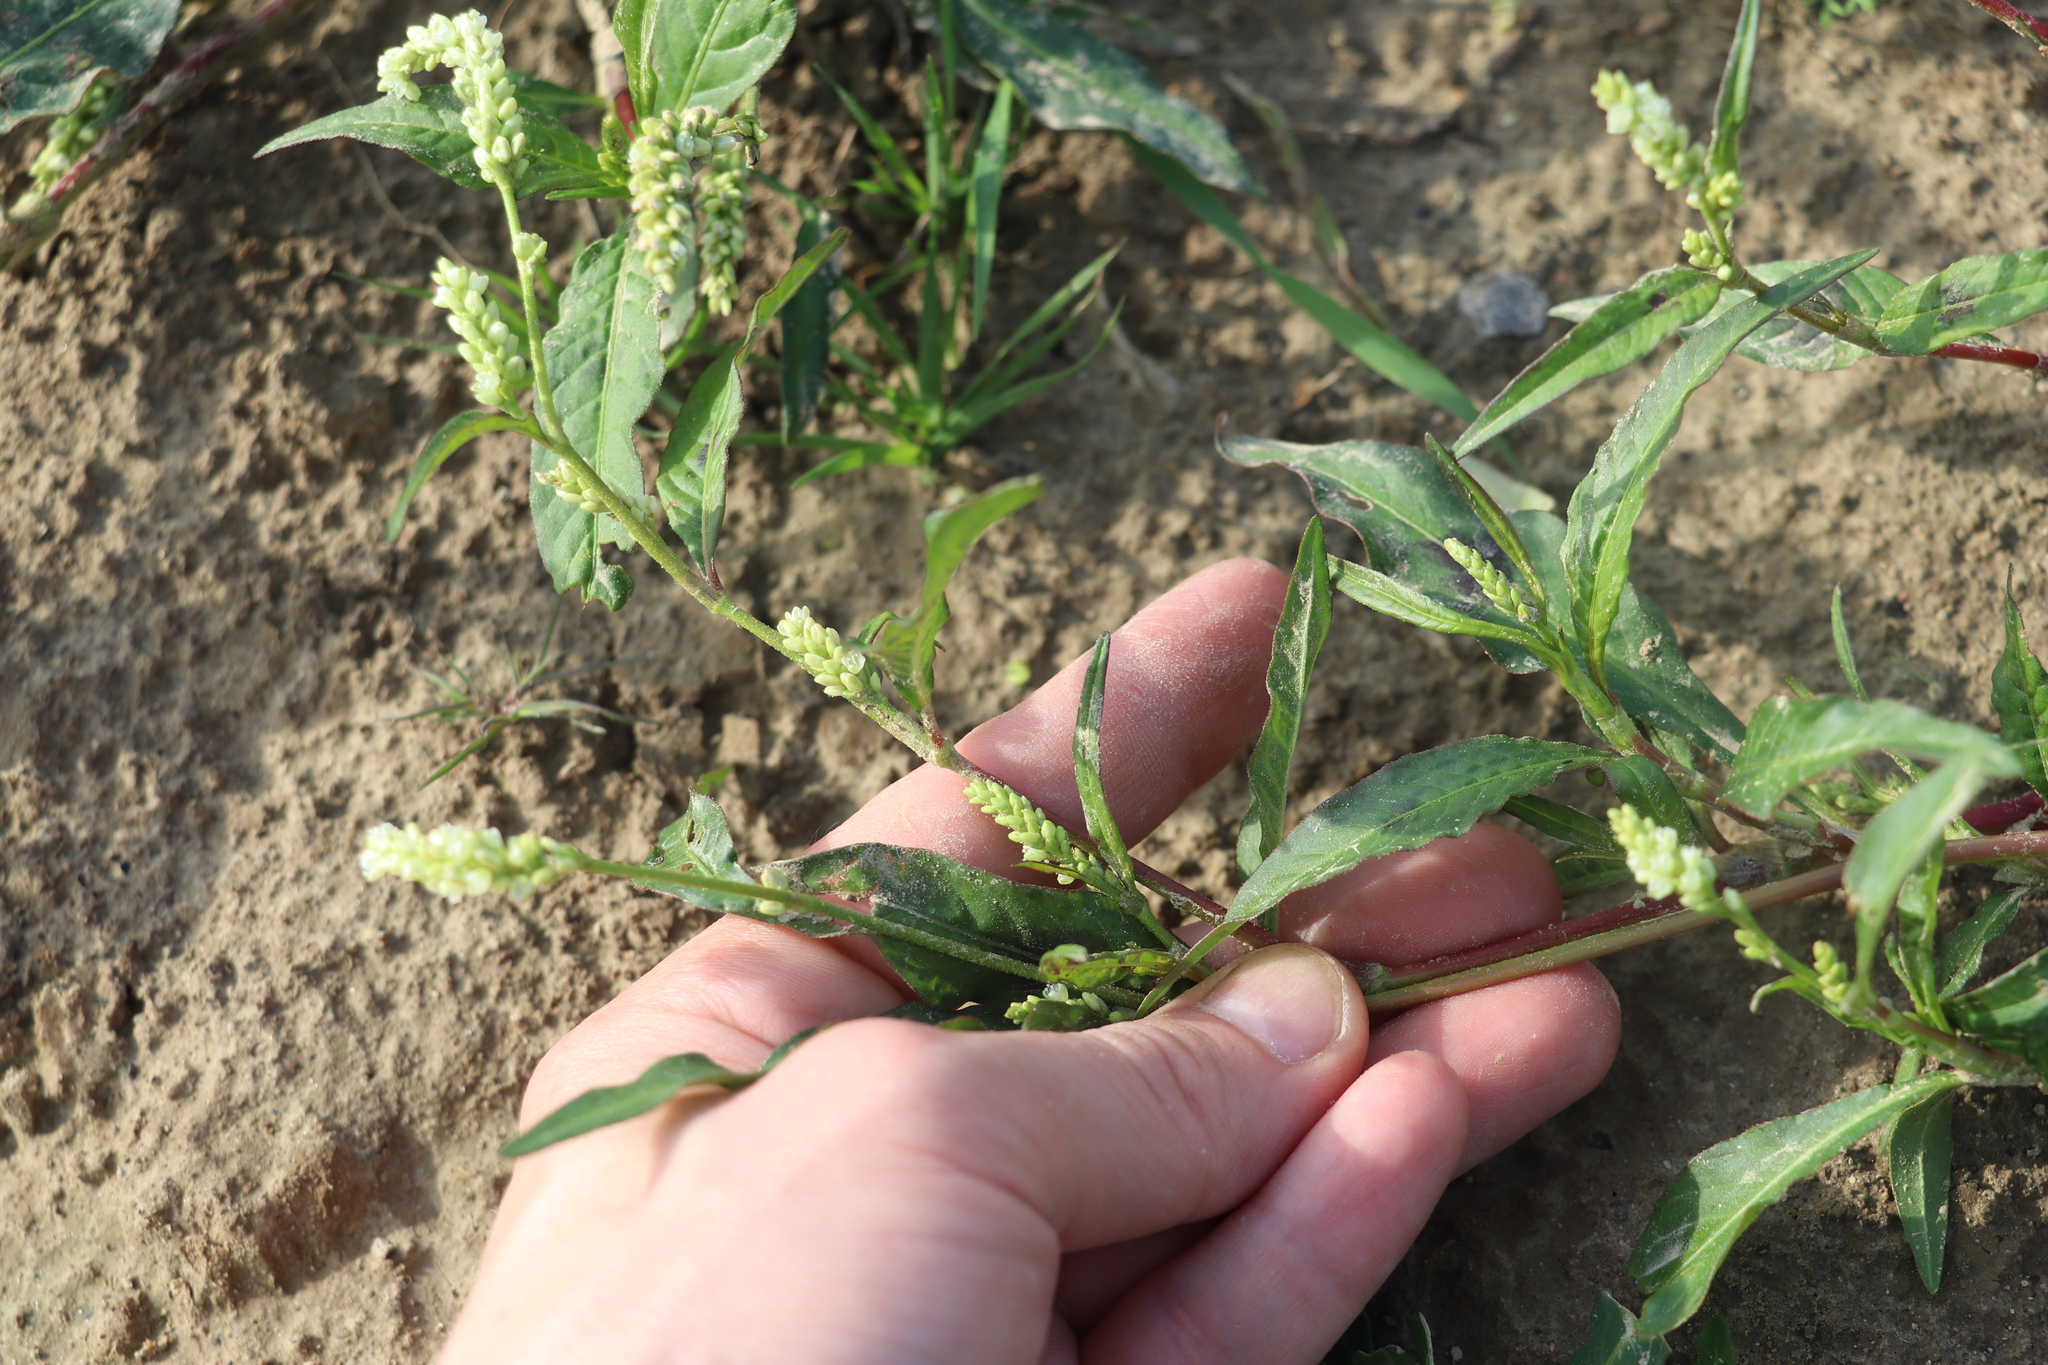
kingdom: Plantae
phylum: Tracheophyta
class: Magnoliopsida
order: Caryophyllales
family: Polygonaceae
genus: Persicaria
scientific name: Persicaria maculosa
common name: Redshank
